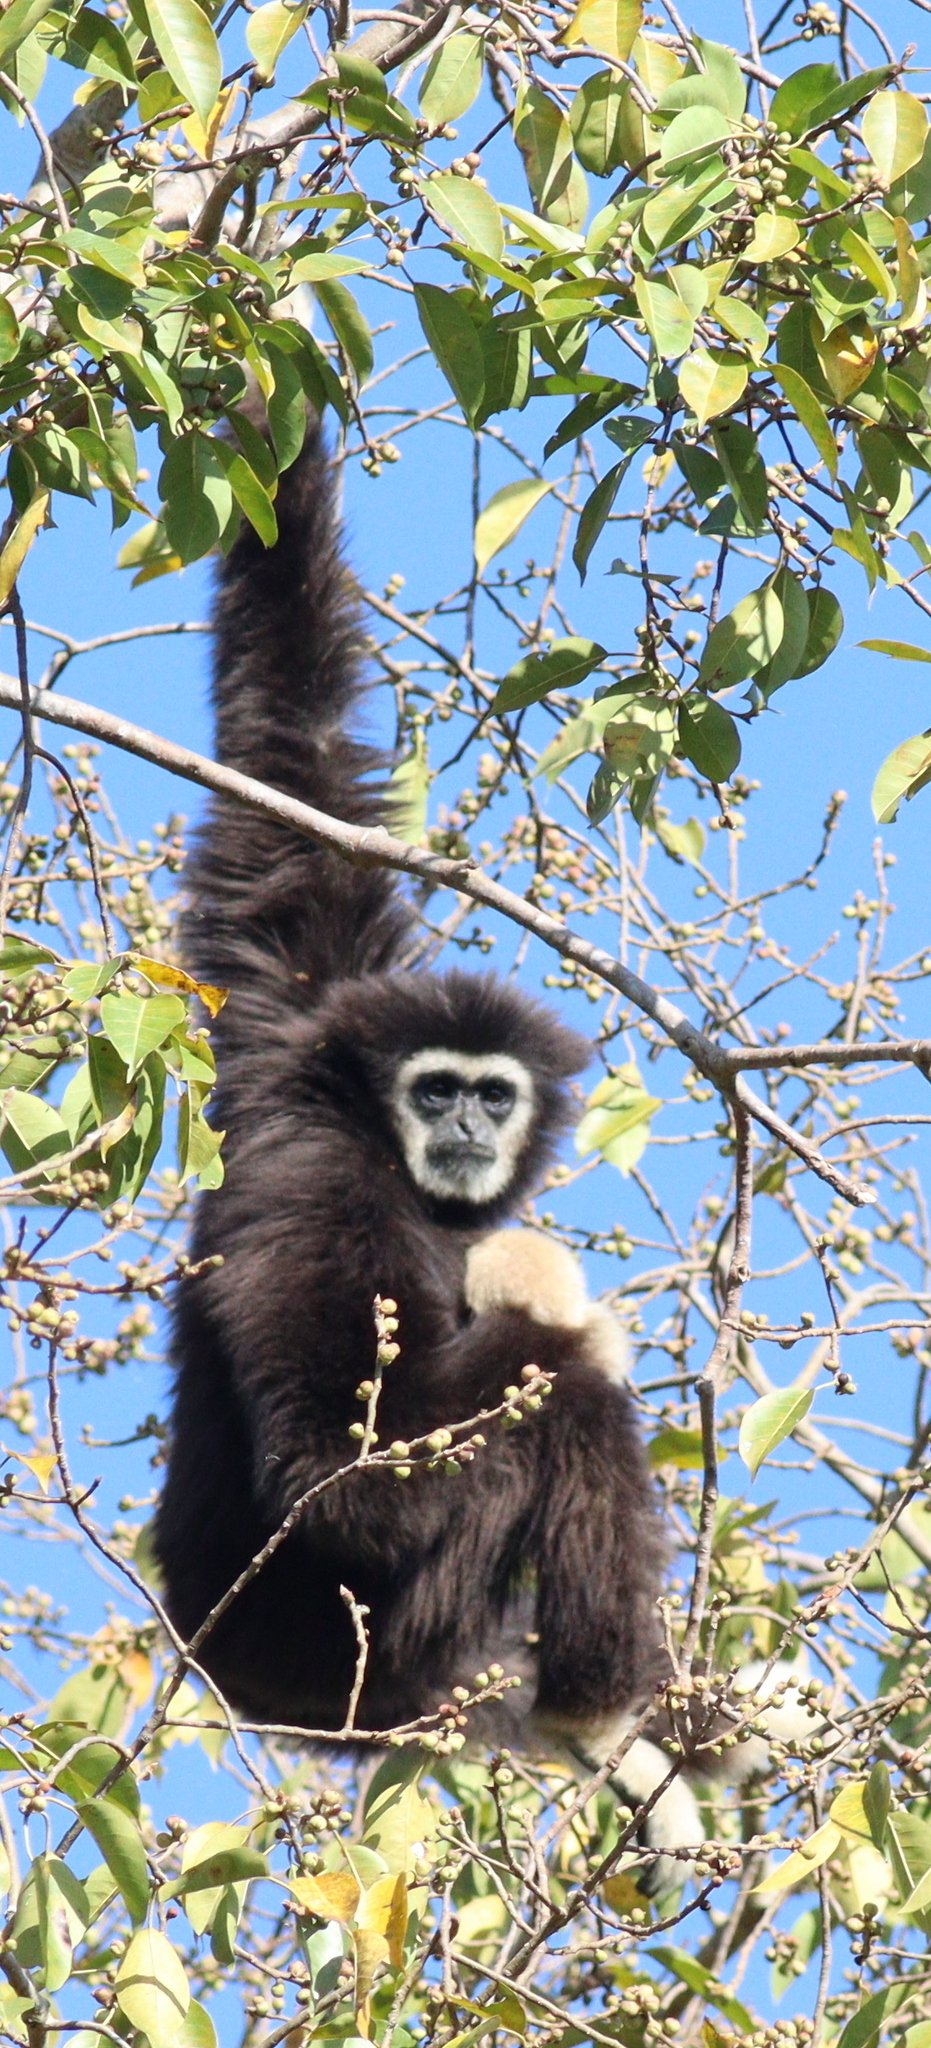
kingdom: Animalia
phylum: Chordata
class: Mammalia
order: Primates
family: Hylobatidae
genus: Hylobates
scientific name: Hylobates lar
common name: Lar gibbon
